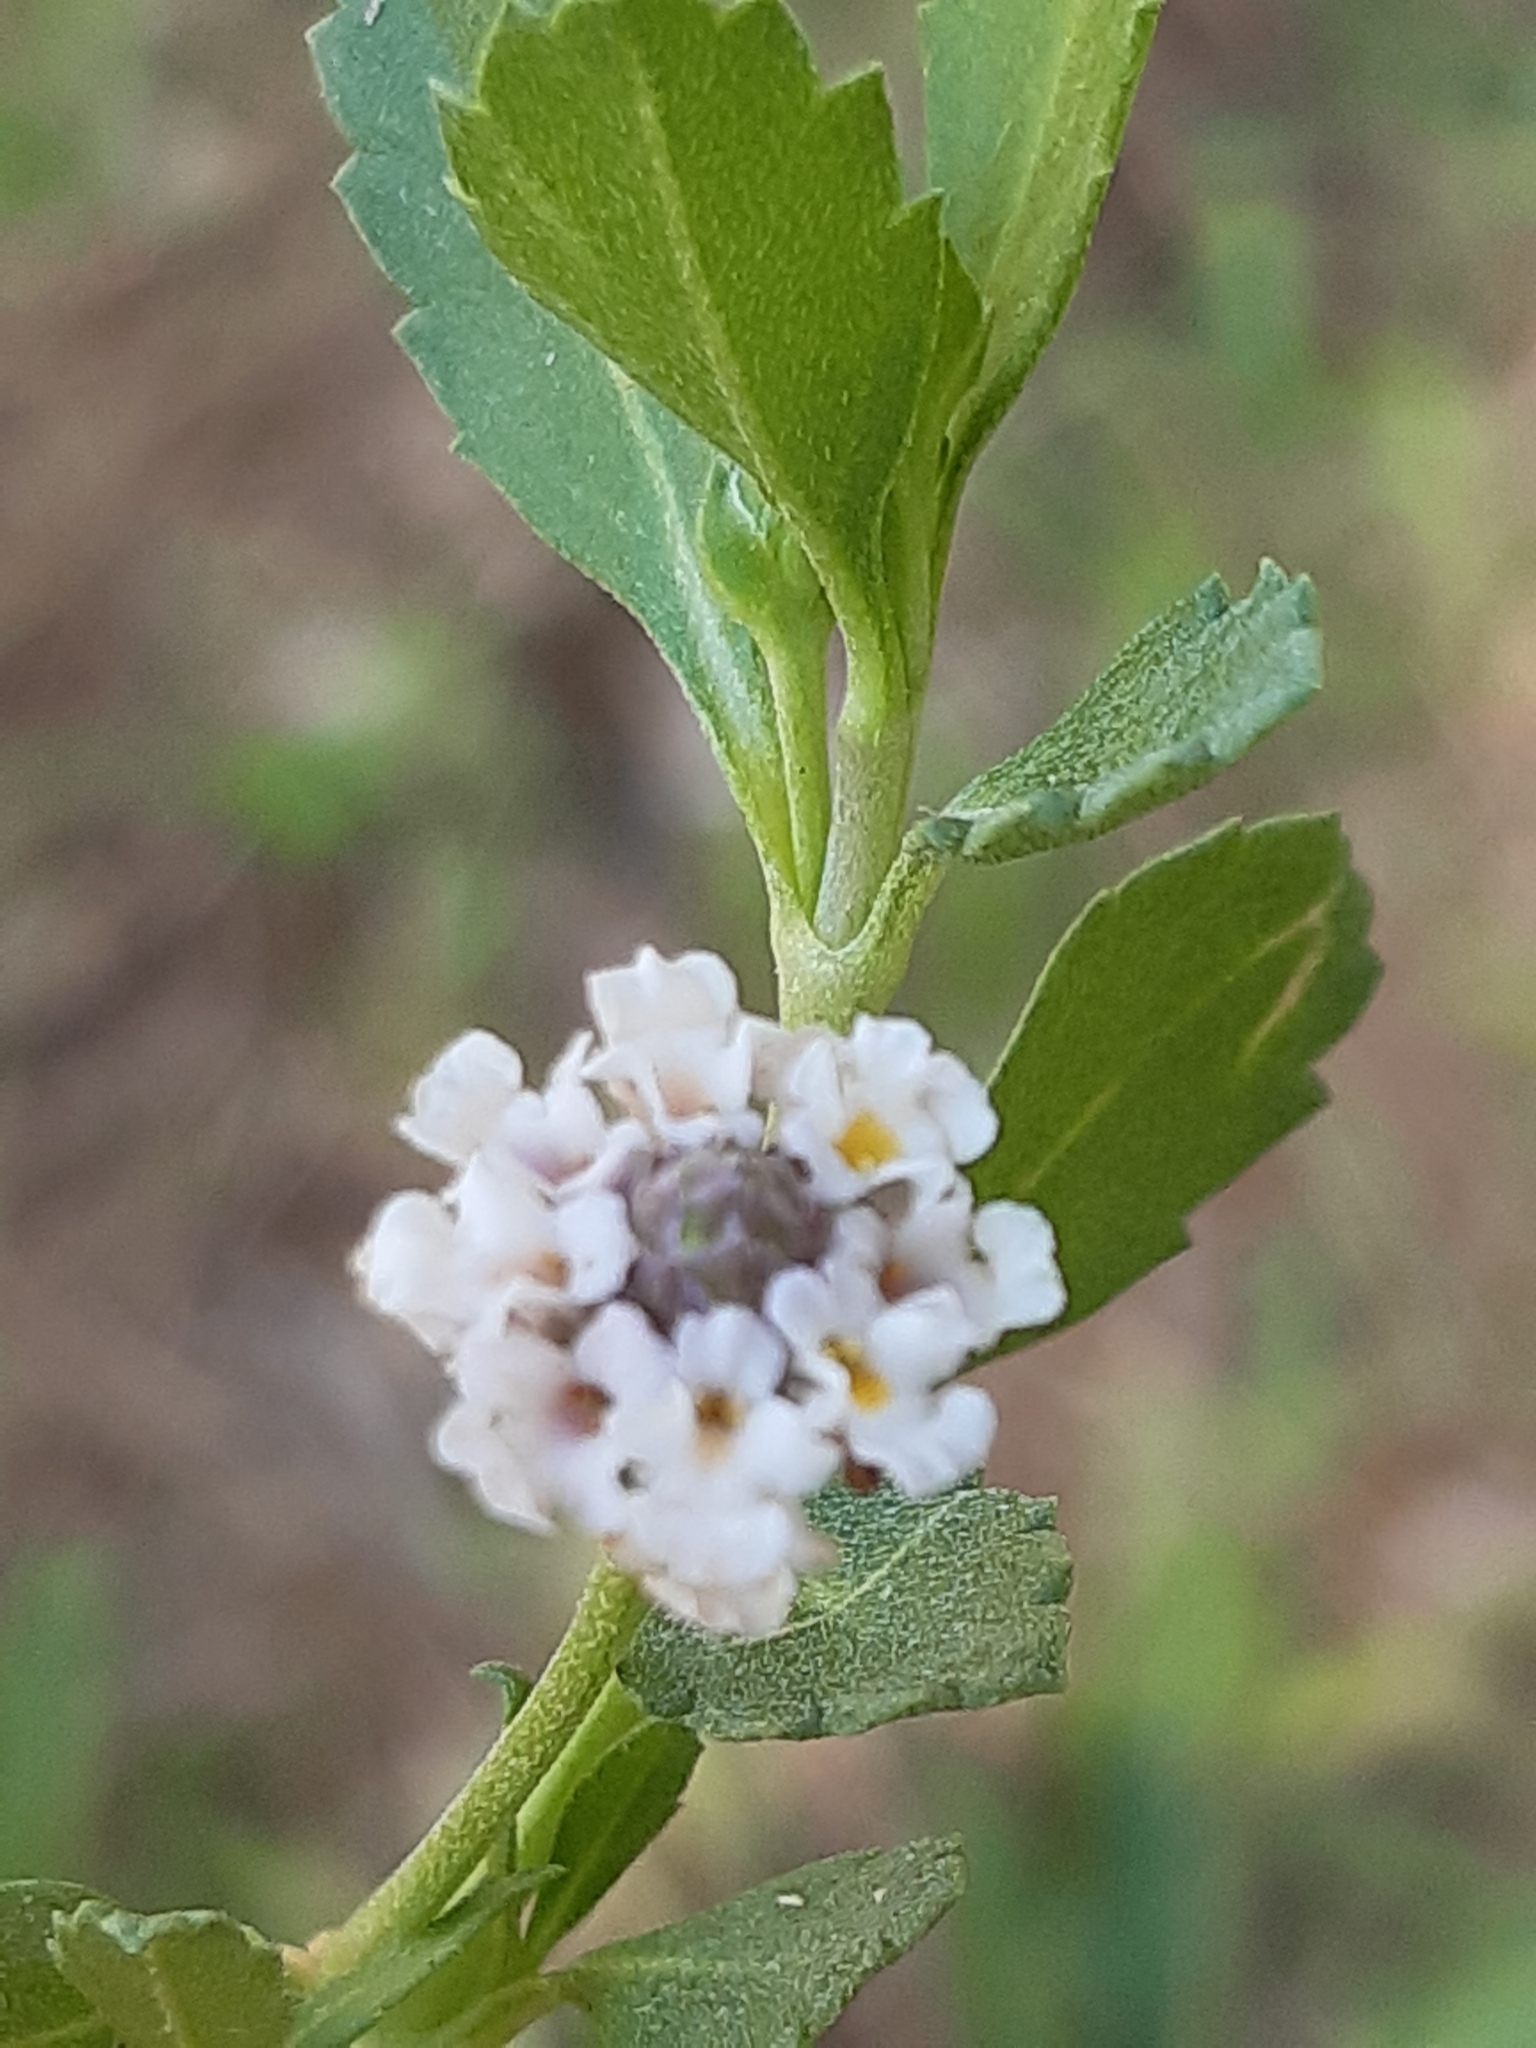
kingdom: Plantae
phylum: Tracheophyta
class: Magnoliopsida
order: Lamiales
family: Verbenaceae
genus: Phyla
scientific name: Phyla nodiflora
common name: Frogfruit
